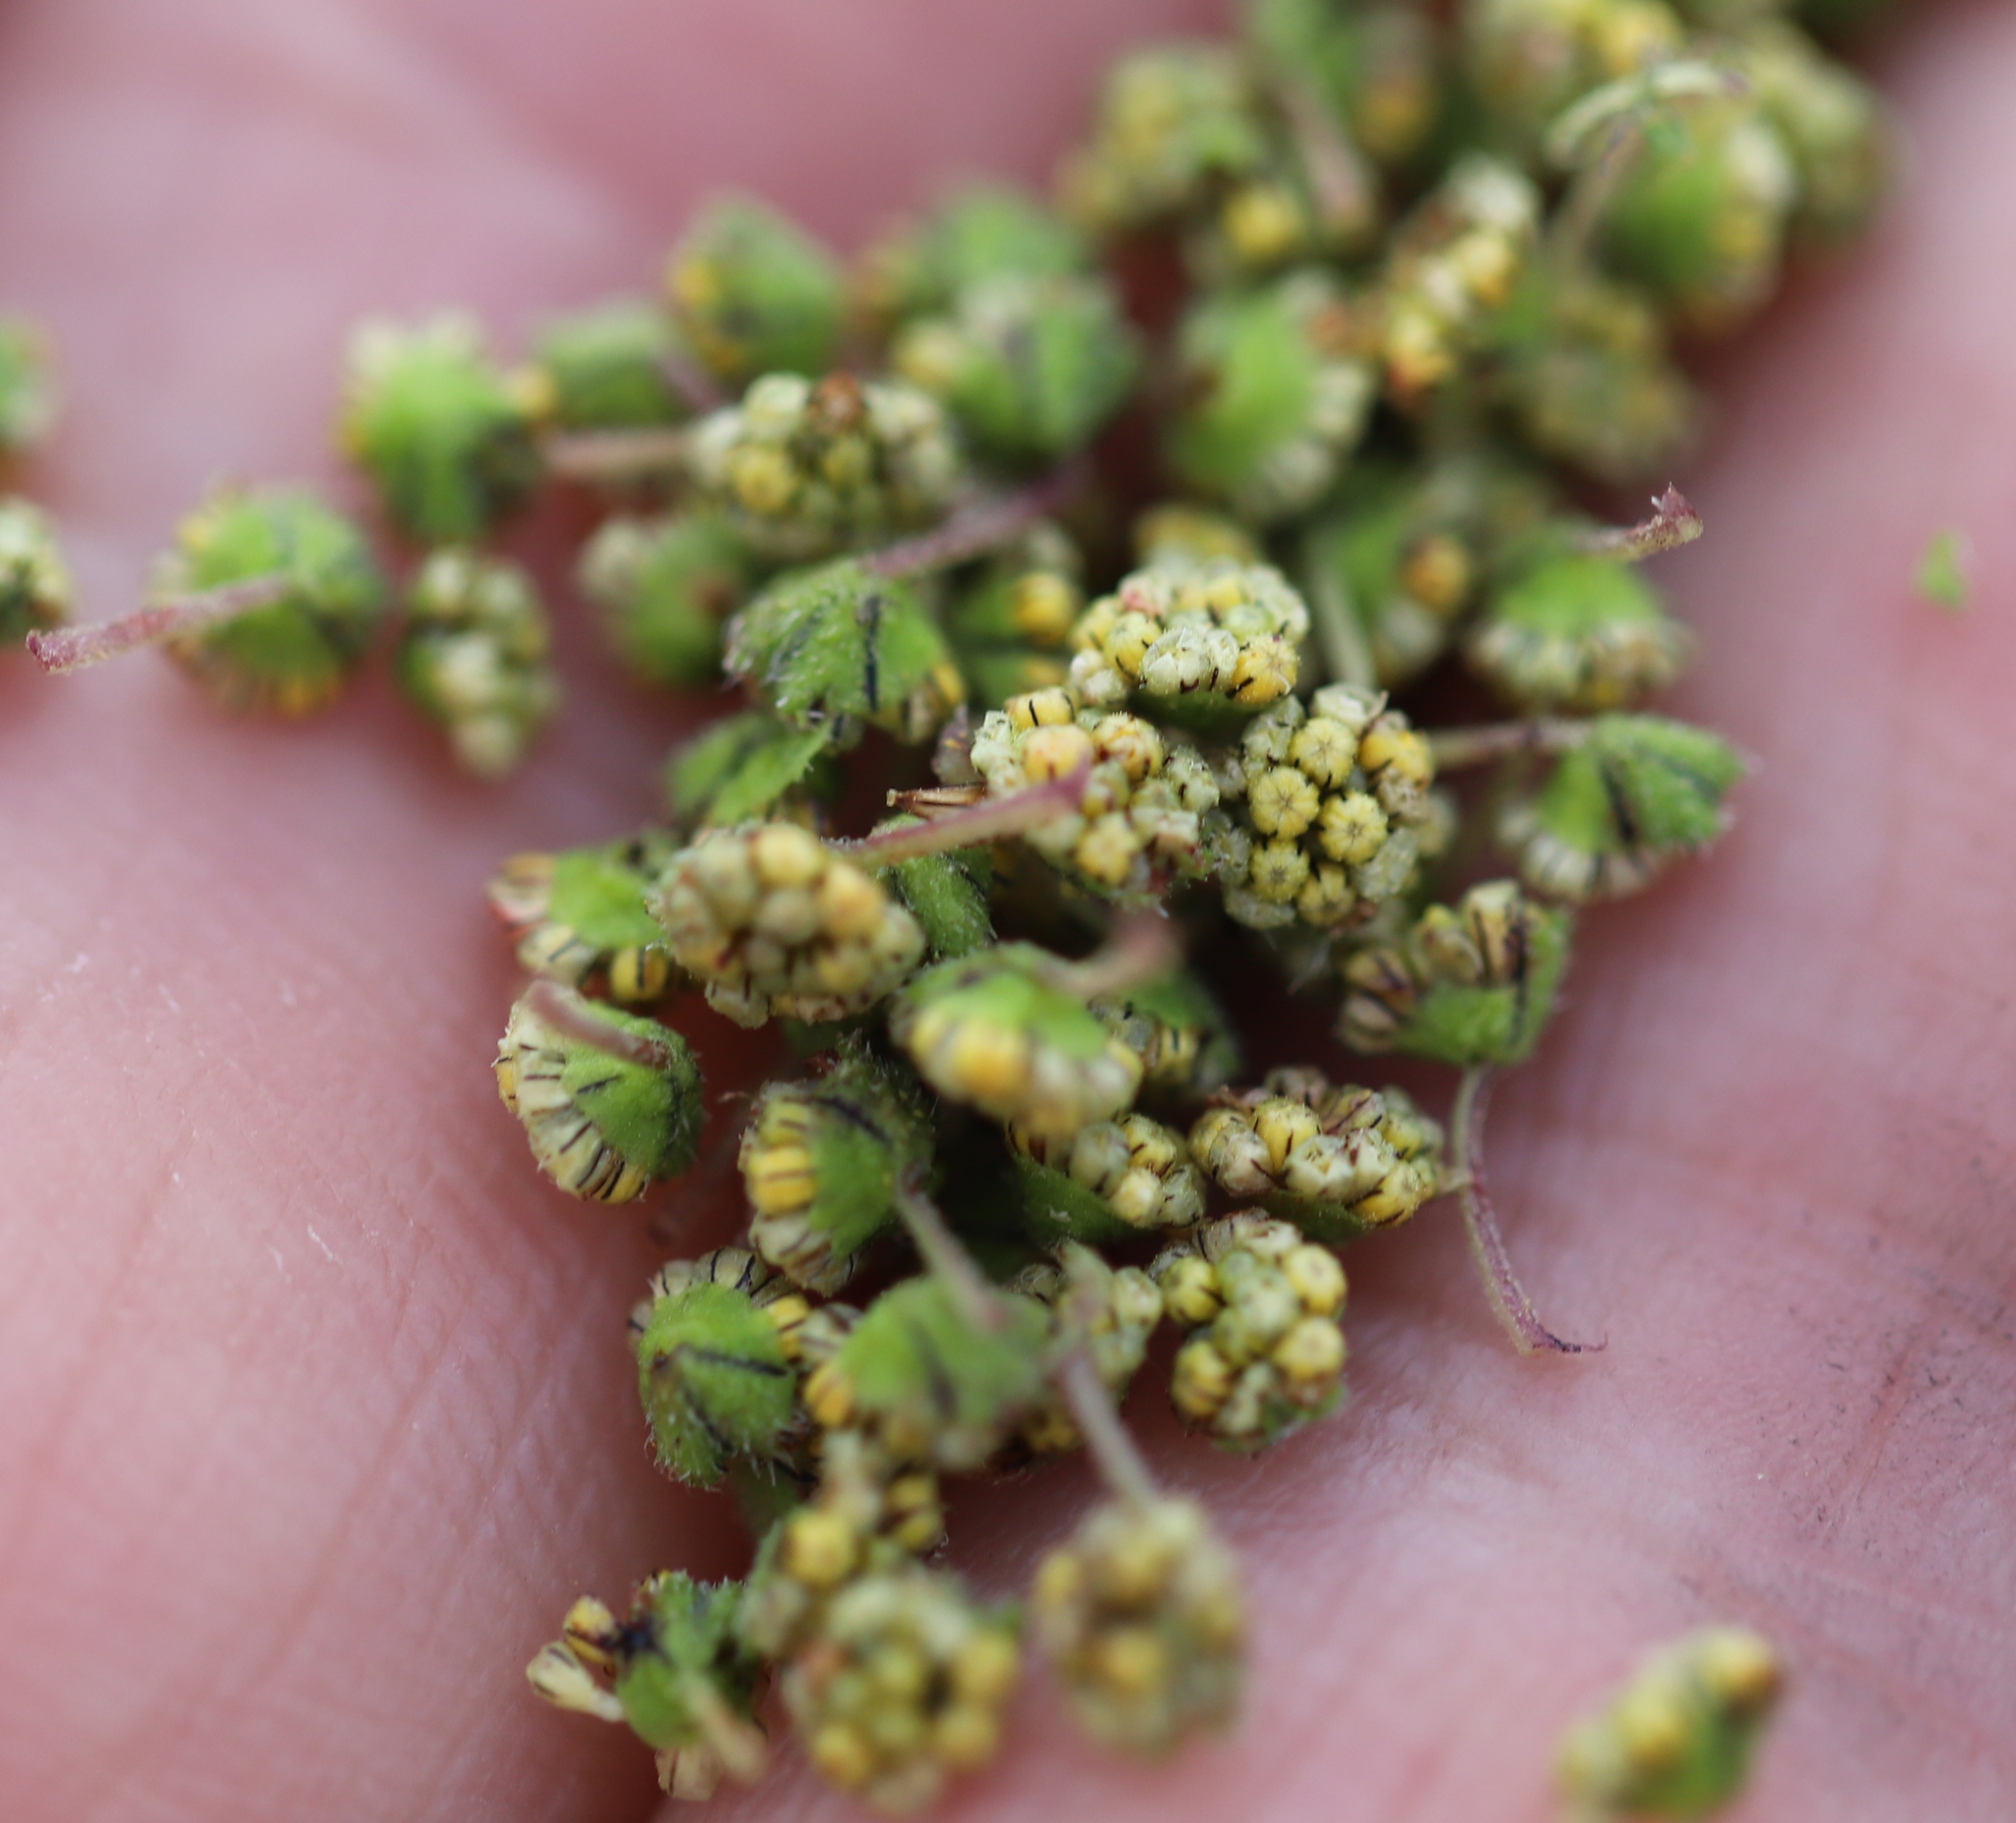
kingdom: Plantae
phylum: Tracheophyta
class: Magnoliopsida
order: Asterales
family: Asteraceae
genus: Ambrosia
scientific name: Ambrosia trifida
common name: Giant ragweed
